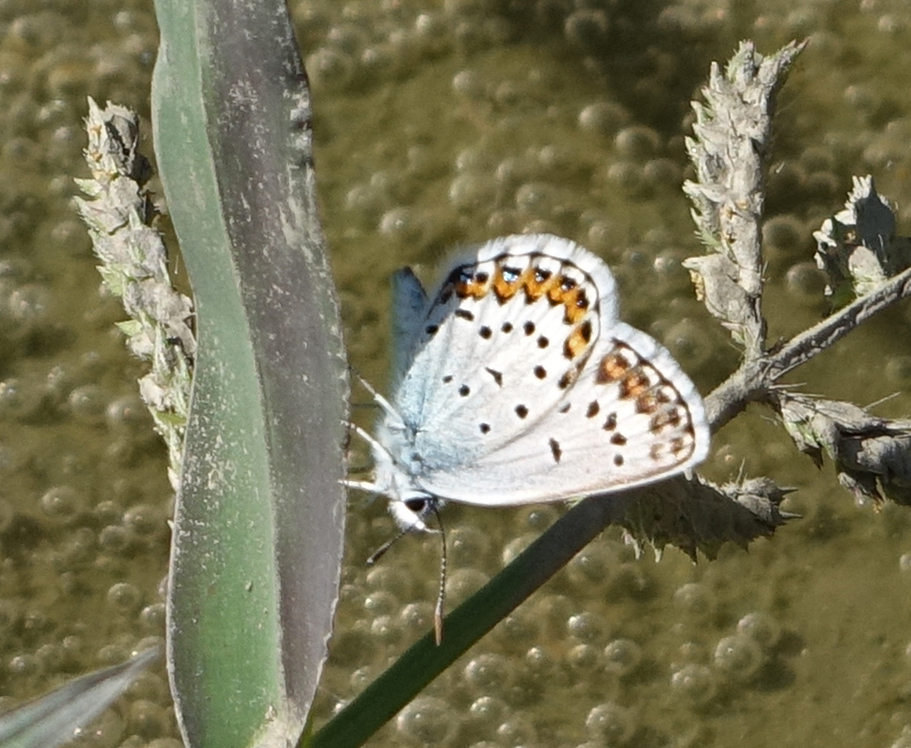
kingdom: Animalia
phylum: Arthropoda
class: Insecta
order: Lepidoptera
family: Lycaenidae
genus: Plebejus
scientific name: Plebejus argus
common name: Silver-studded blue
